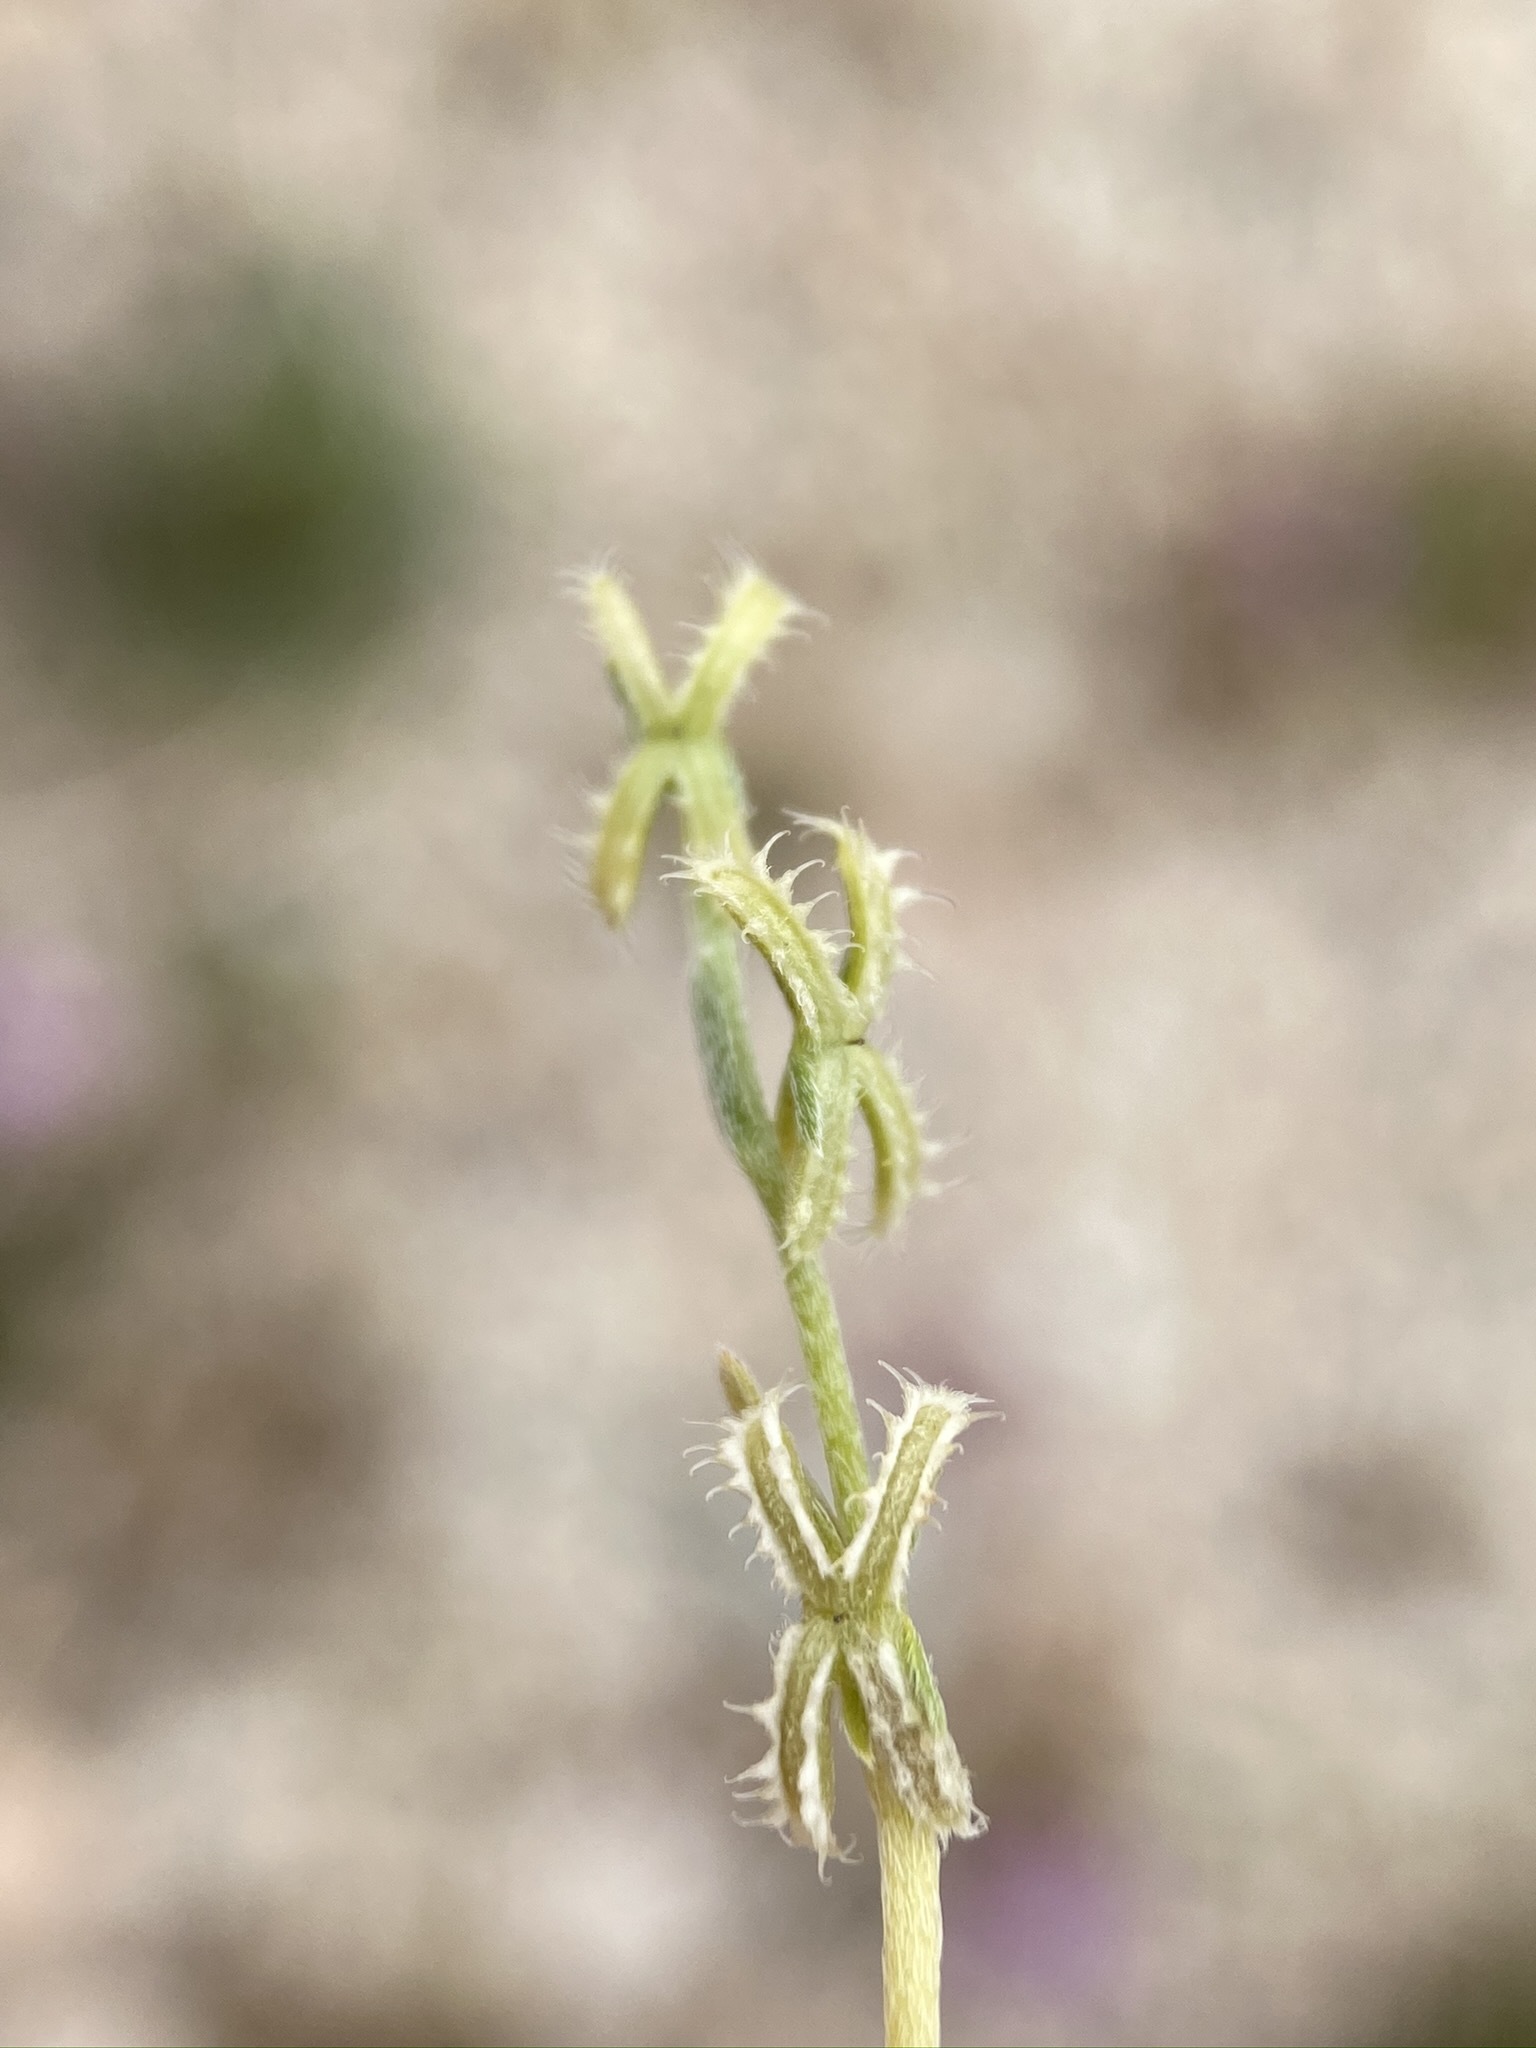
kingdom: Plantae
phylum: Tracheophyta
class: Magnoliopsida
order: Boraginales
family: Boraginaceae
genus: Pectocarya
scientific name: Pectocarya linearis
